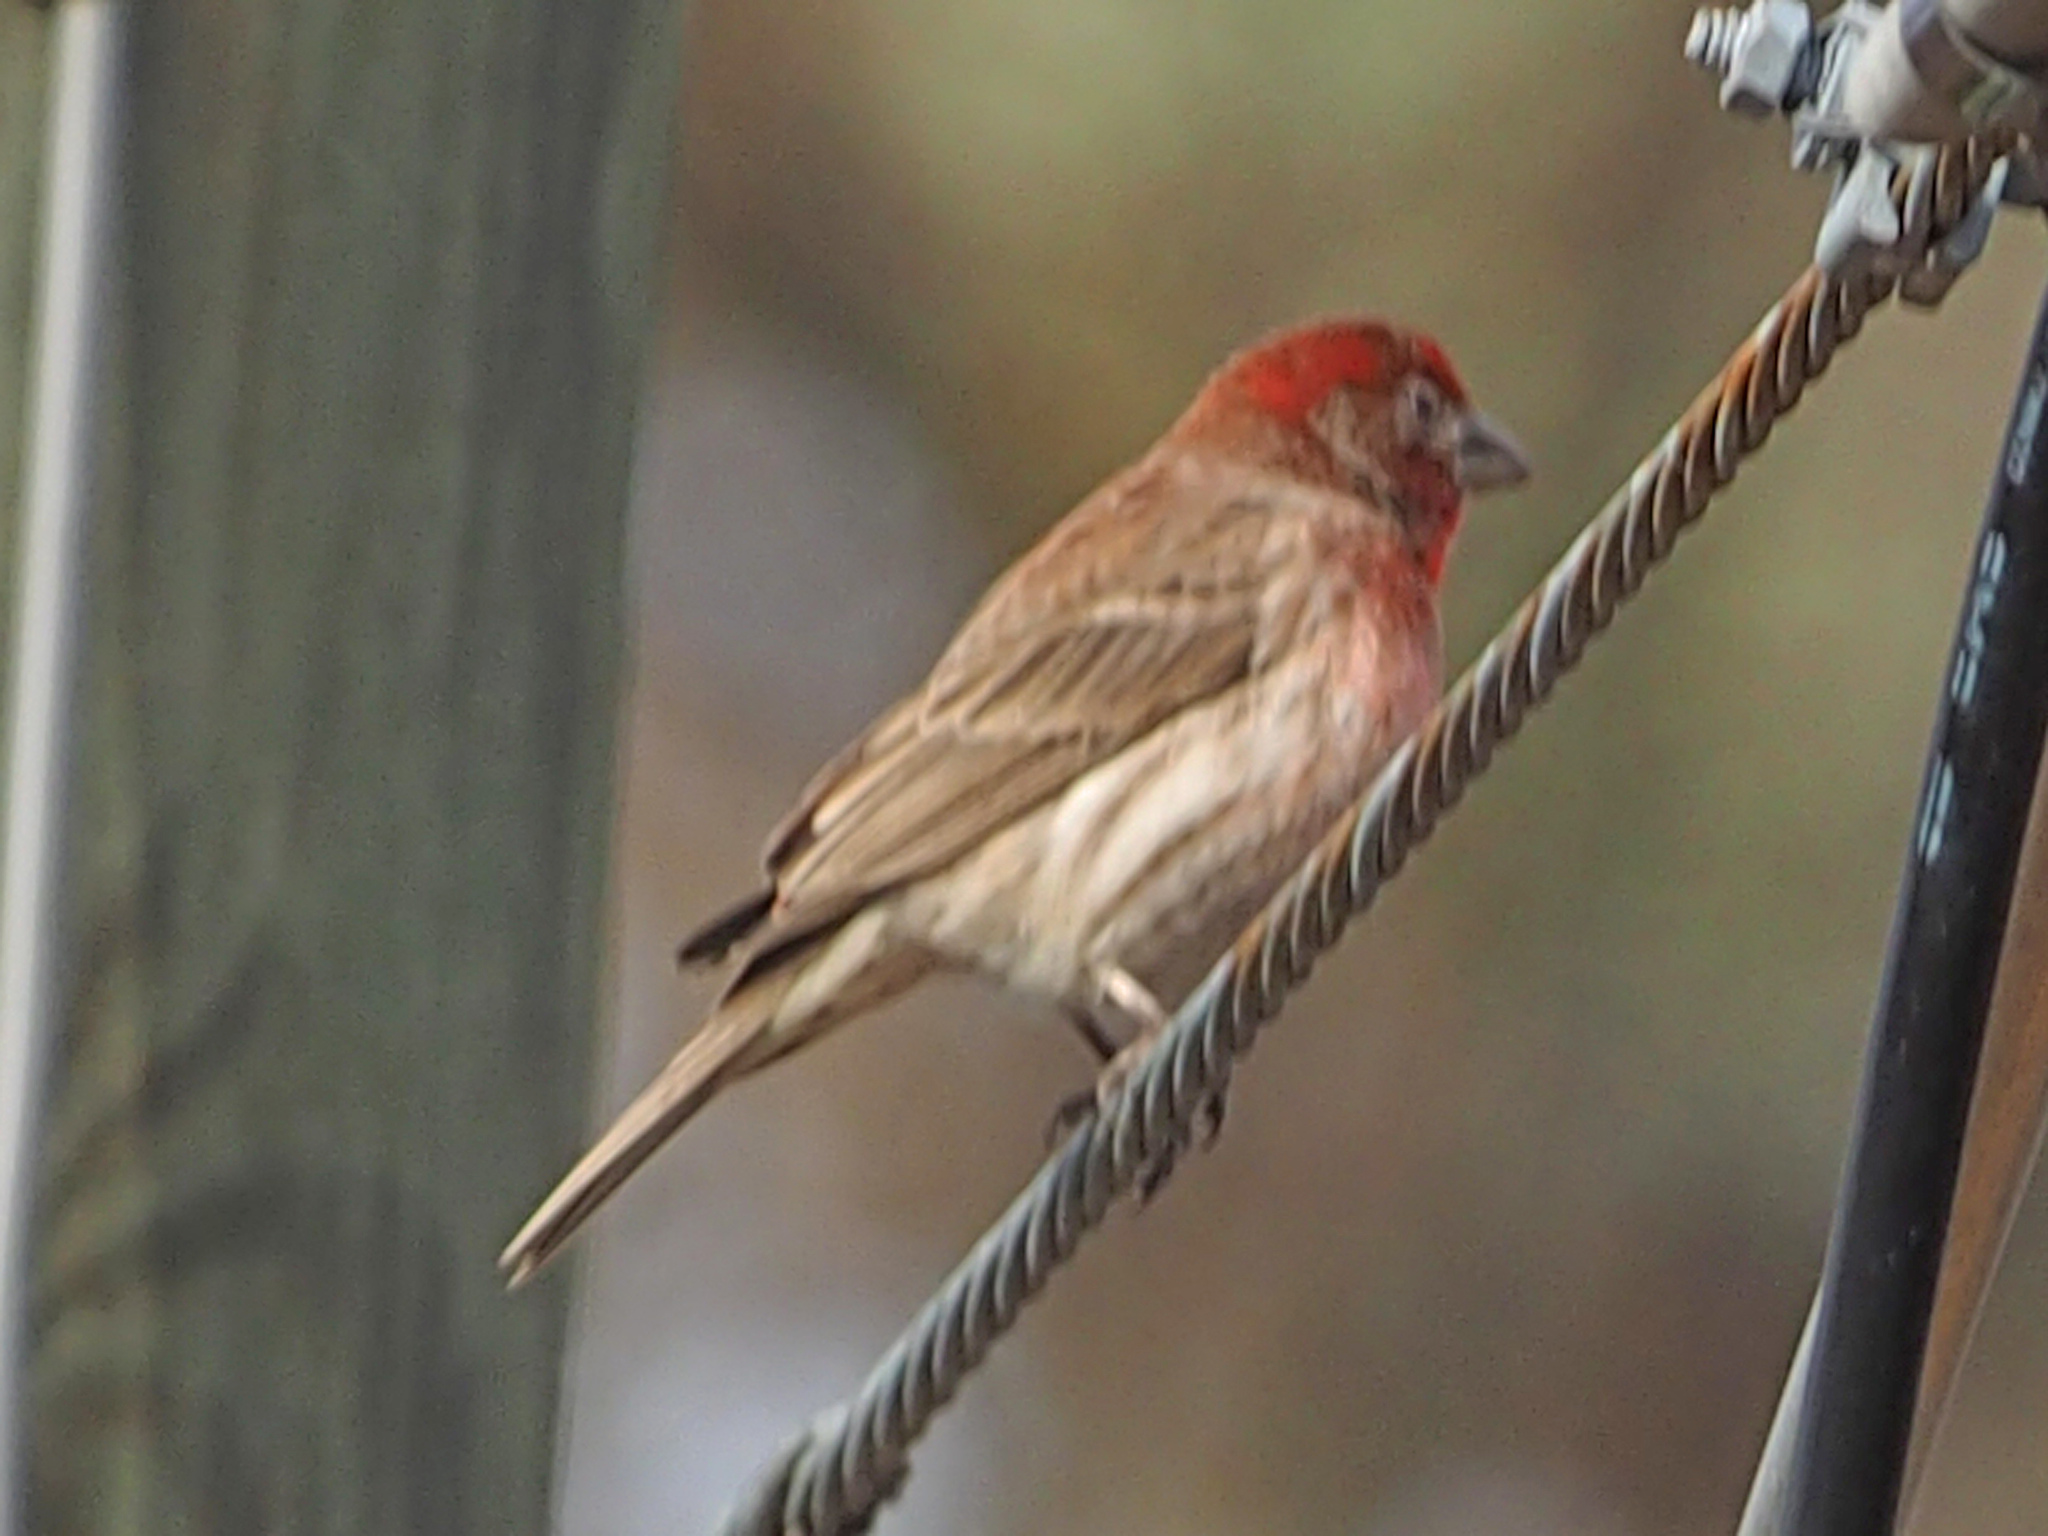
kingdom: Animalia
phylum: Chordata
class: Aves
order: Passeriformes
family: Fringillidae
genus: Haemorhous
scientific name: Haemorhous mexicanus
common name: House finch
